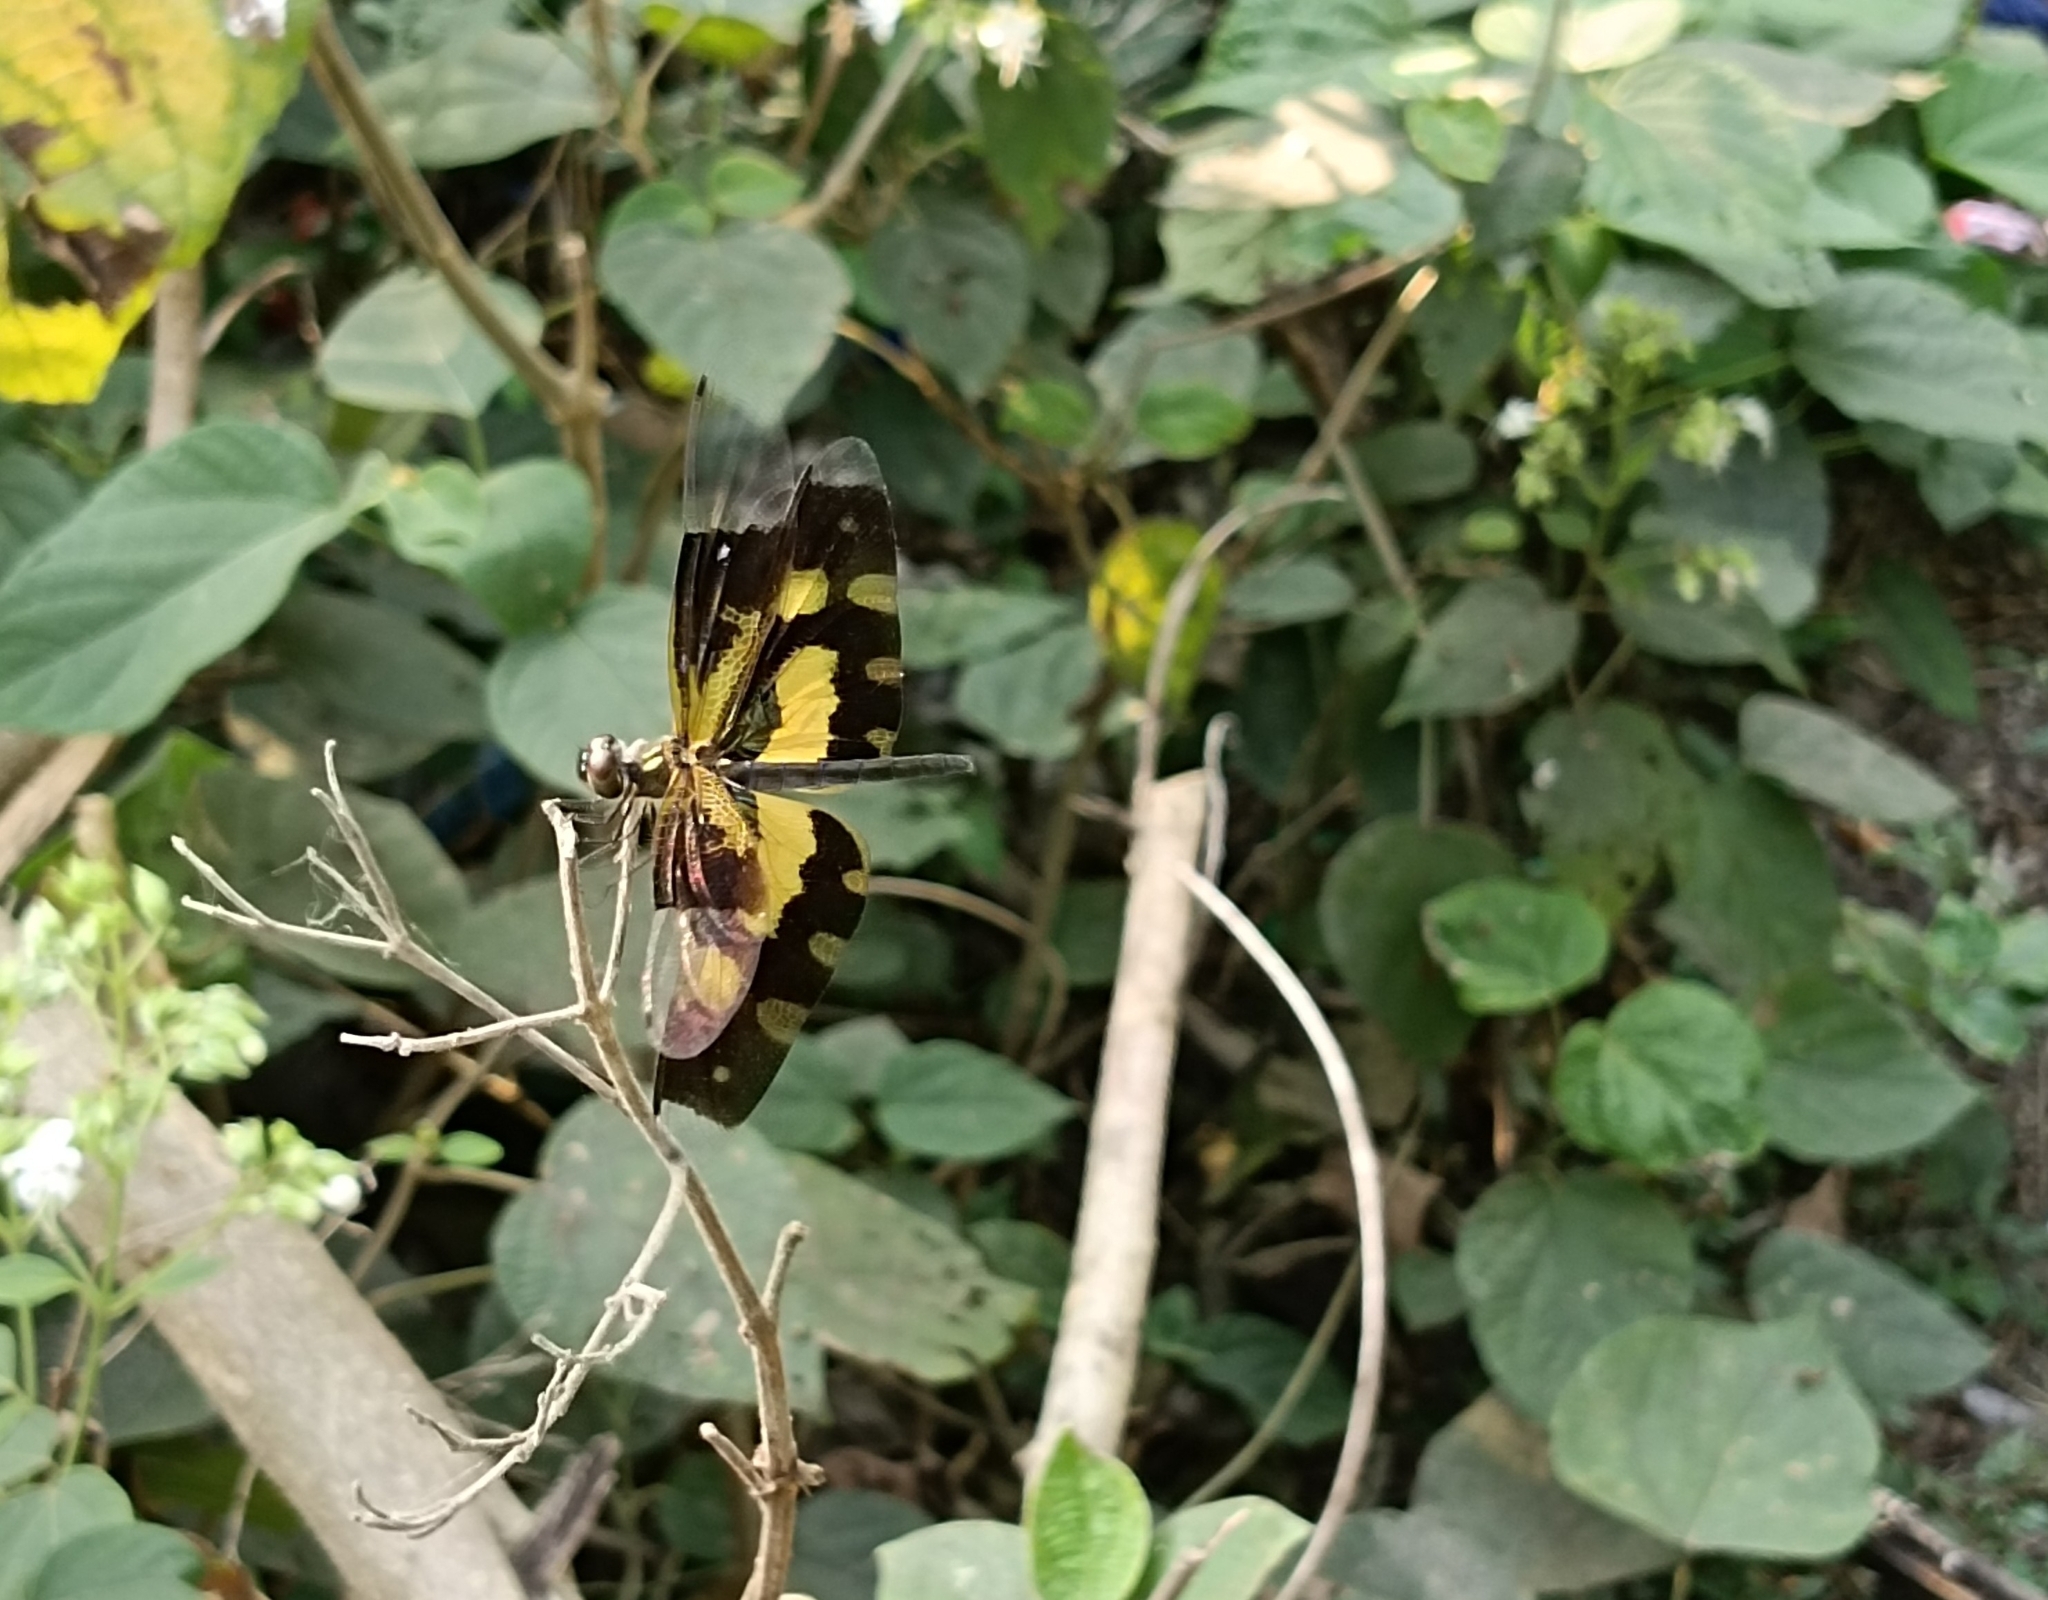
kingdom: Animalia
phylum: Arthropoda
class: Insecta
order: Odonata
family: Libellulidae
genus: Rhyothemis
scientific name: Rhyothemis variegata
